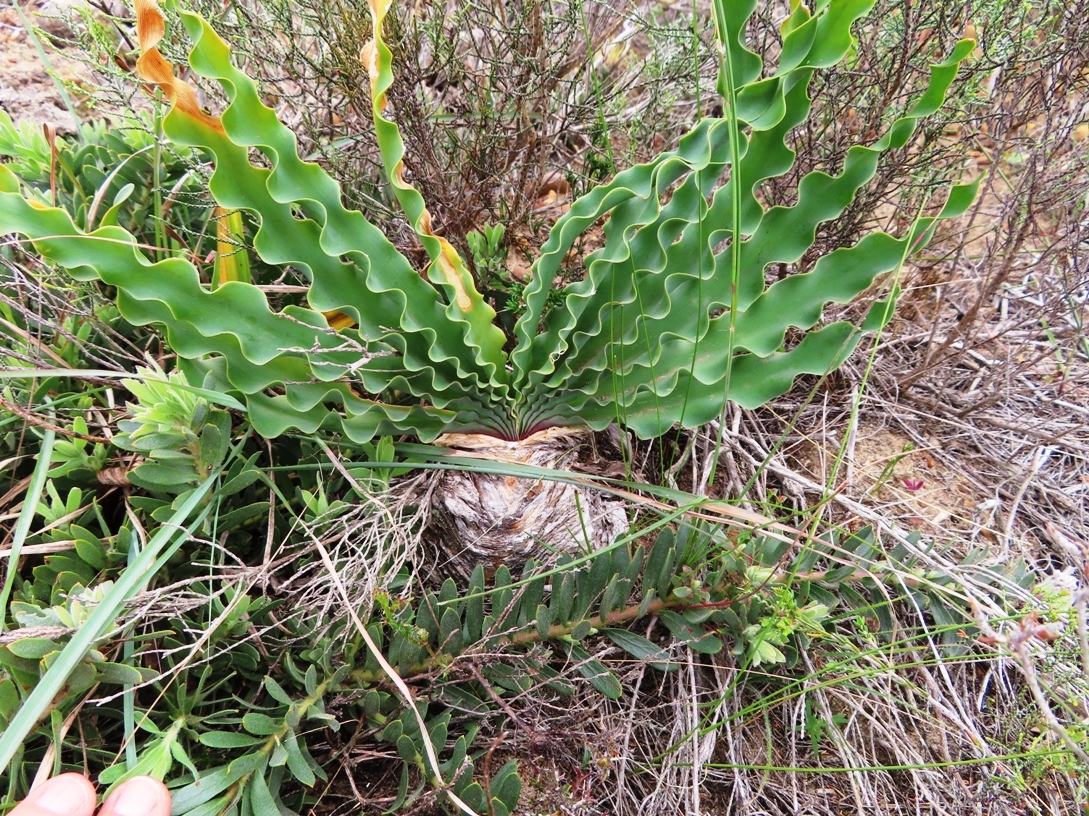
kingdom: Plantae
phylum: Tracheophyta
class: Liliopsida
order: Asparagales
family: Amaryllidaceae
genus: Boophone
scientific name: Boophone disticha
